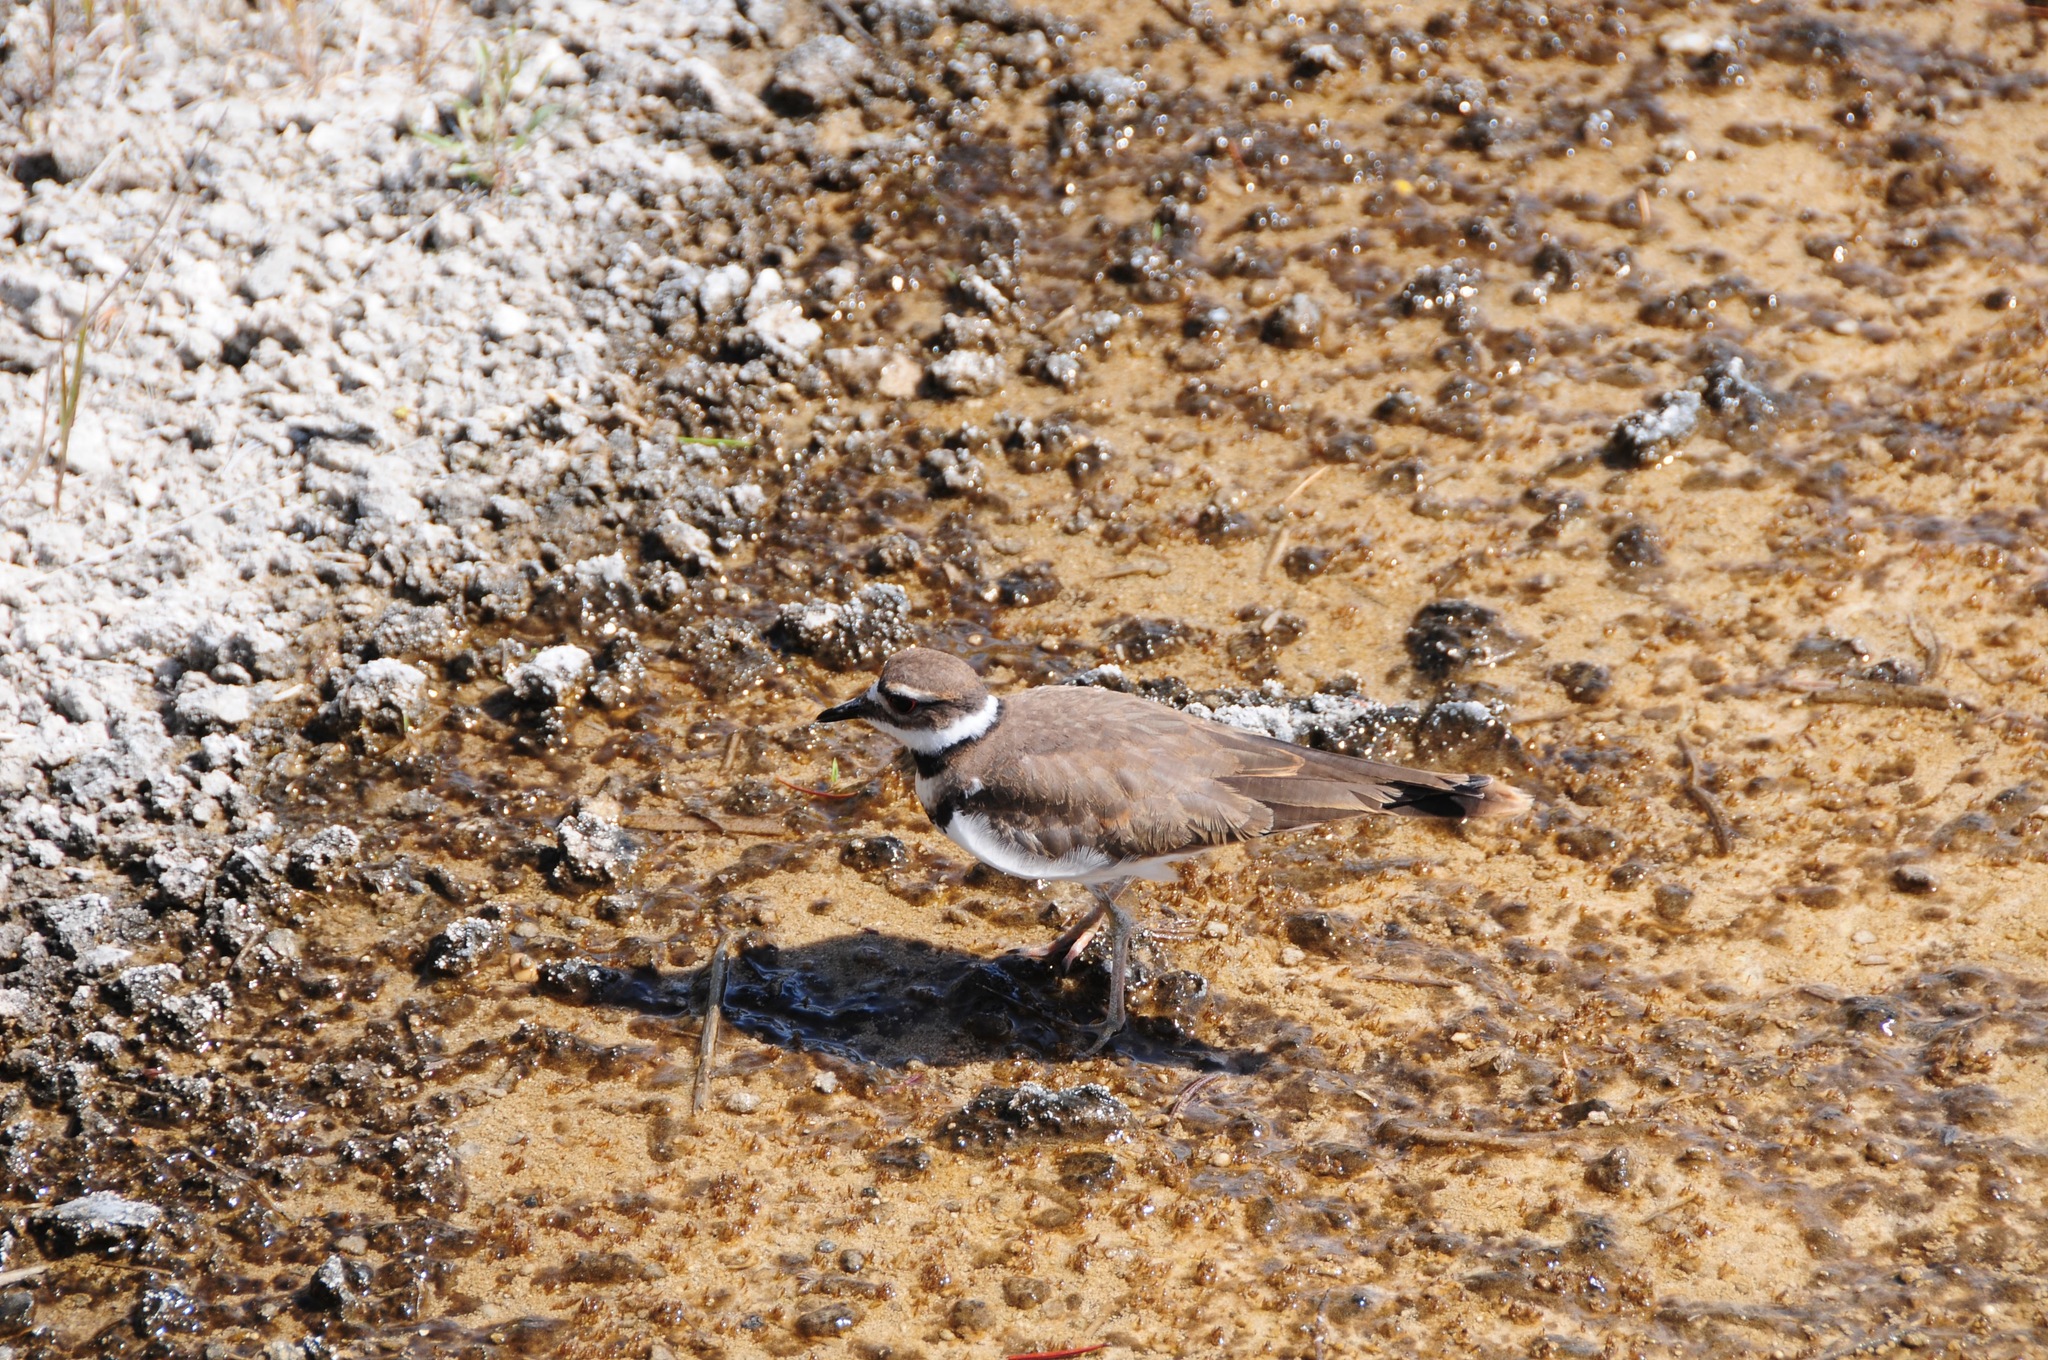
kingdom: Animalia
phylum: Chordata
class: Aves
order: Charadriiformes
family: Charadriidae
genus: Charadrius
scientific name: Charadrius vociferus
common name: Killdeer
